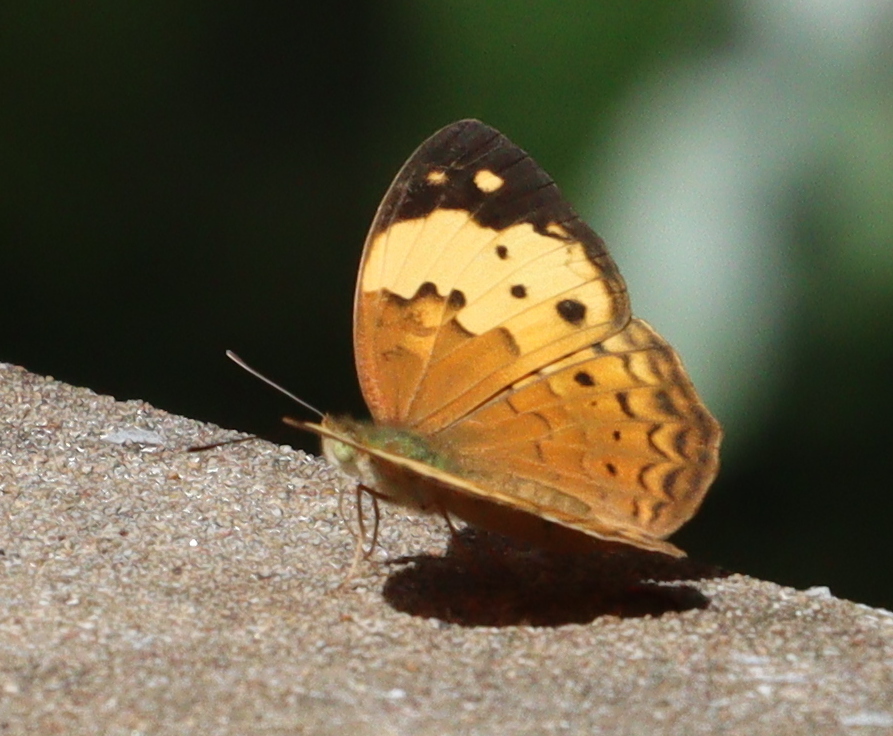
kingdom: Animalia
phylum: Arthropoda
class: Insecta
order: Lepidoptera
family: Nymphalidae
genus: Cupha
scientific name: Cupha erymanthis
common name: Rustic
